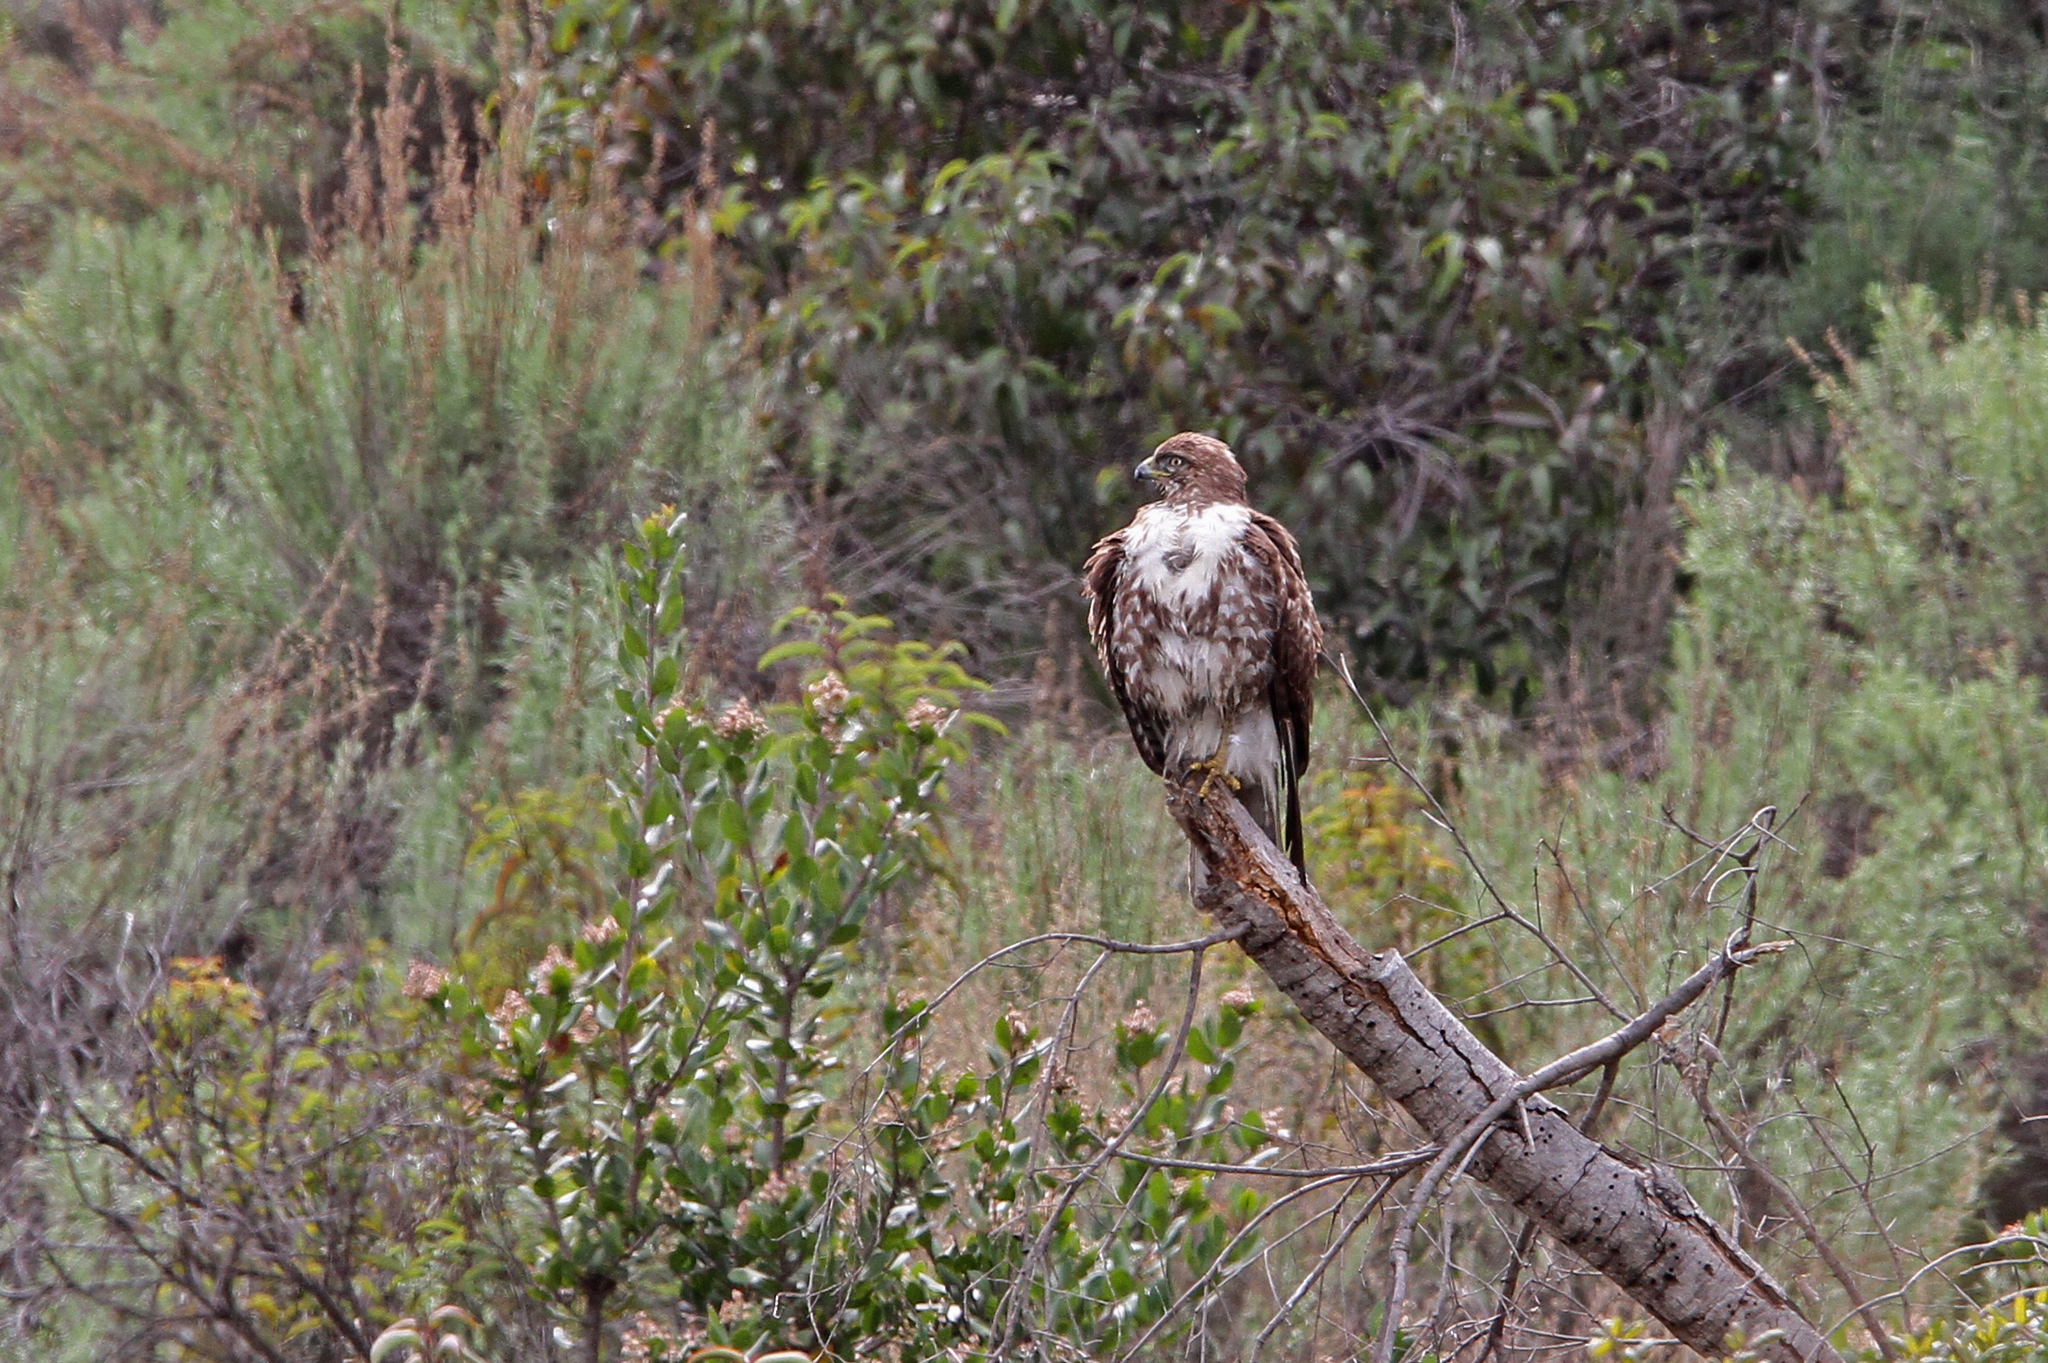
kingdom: Animalia
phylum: Chordata
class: Aves
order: Accipitriformes
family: Accipitridae
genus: Buteo
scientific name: Buteo jamaicensis
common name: Red-tailed hawk
